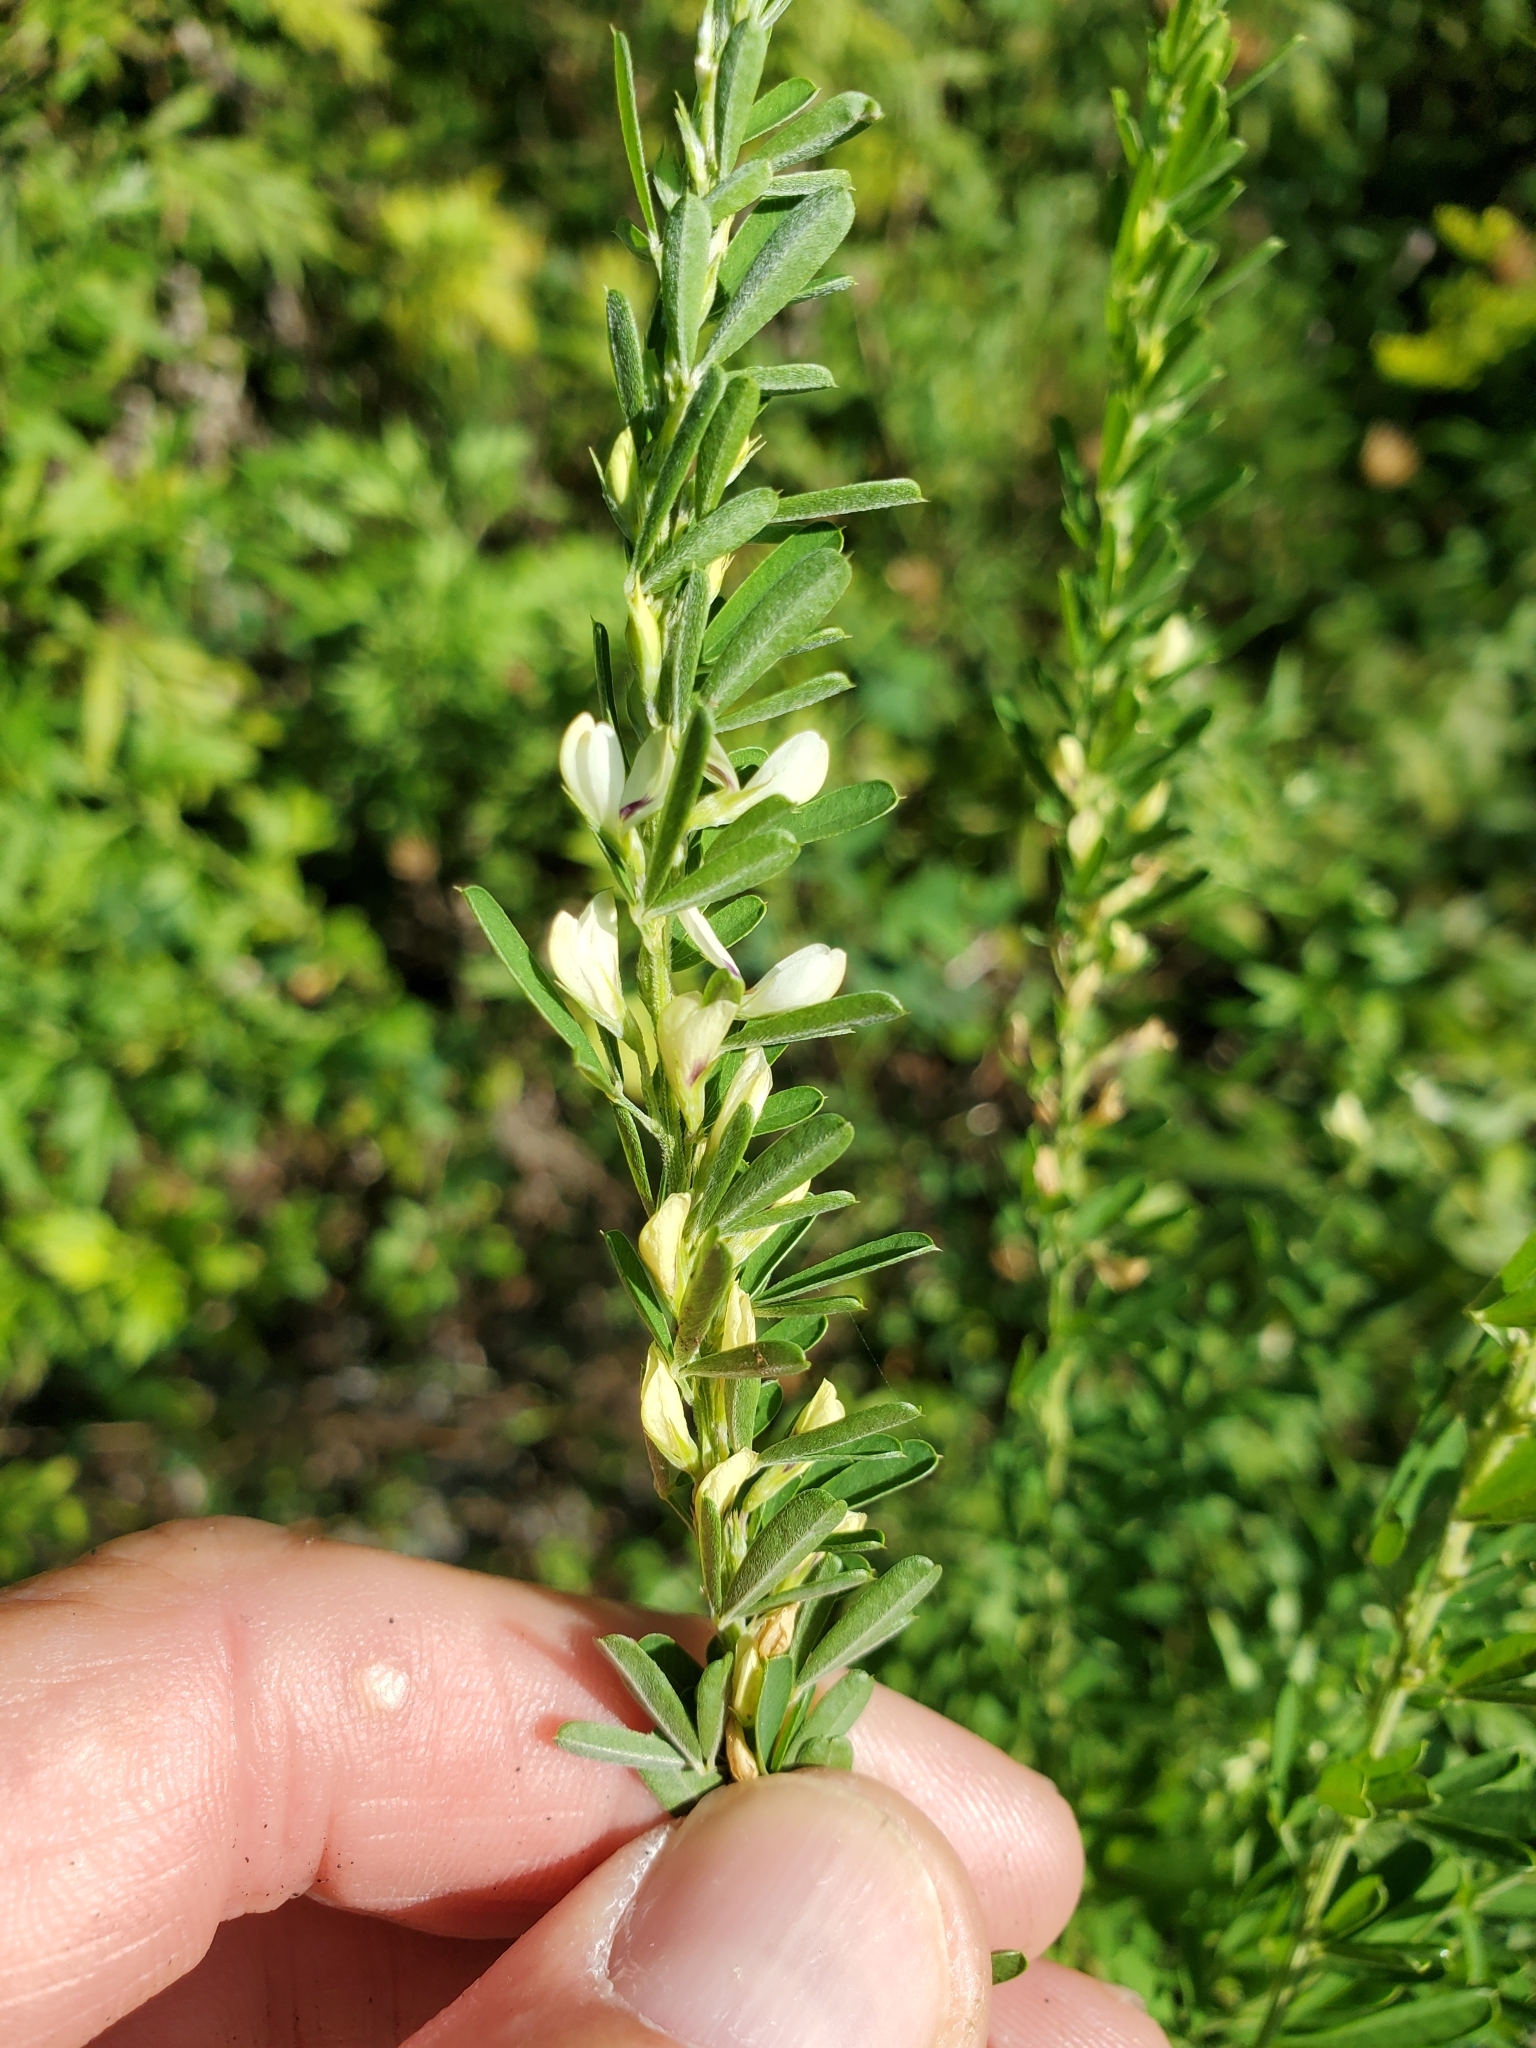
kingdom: Plantae
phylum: Tracheophyta
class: Magnoliopsida
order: Fabales
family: Fabaceae
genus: Lespedeza
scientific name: Lespedeza cuneata
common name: Chinese bush-clover
